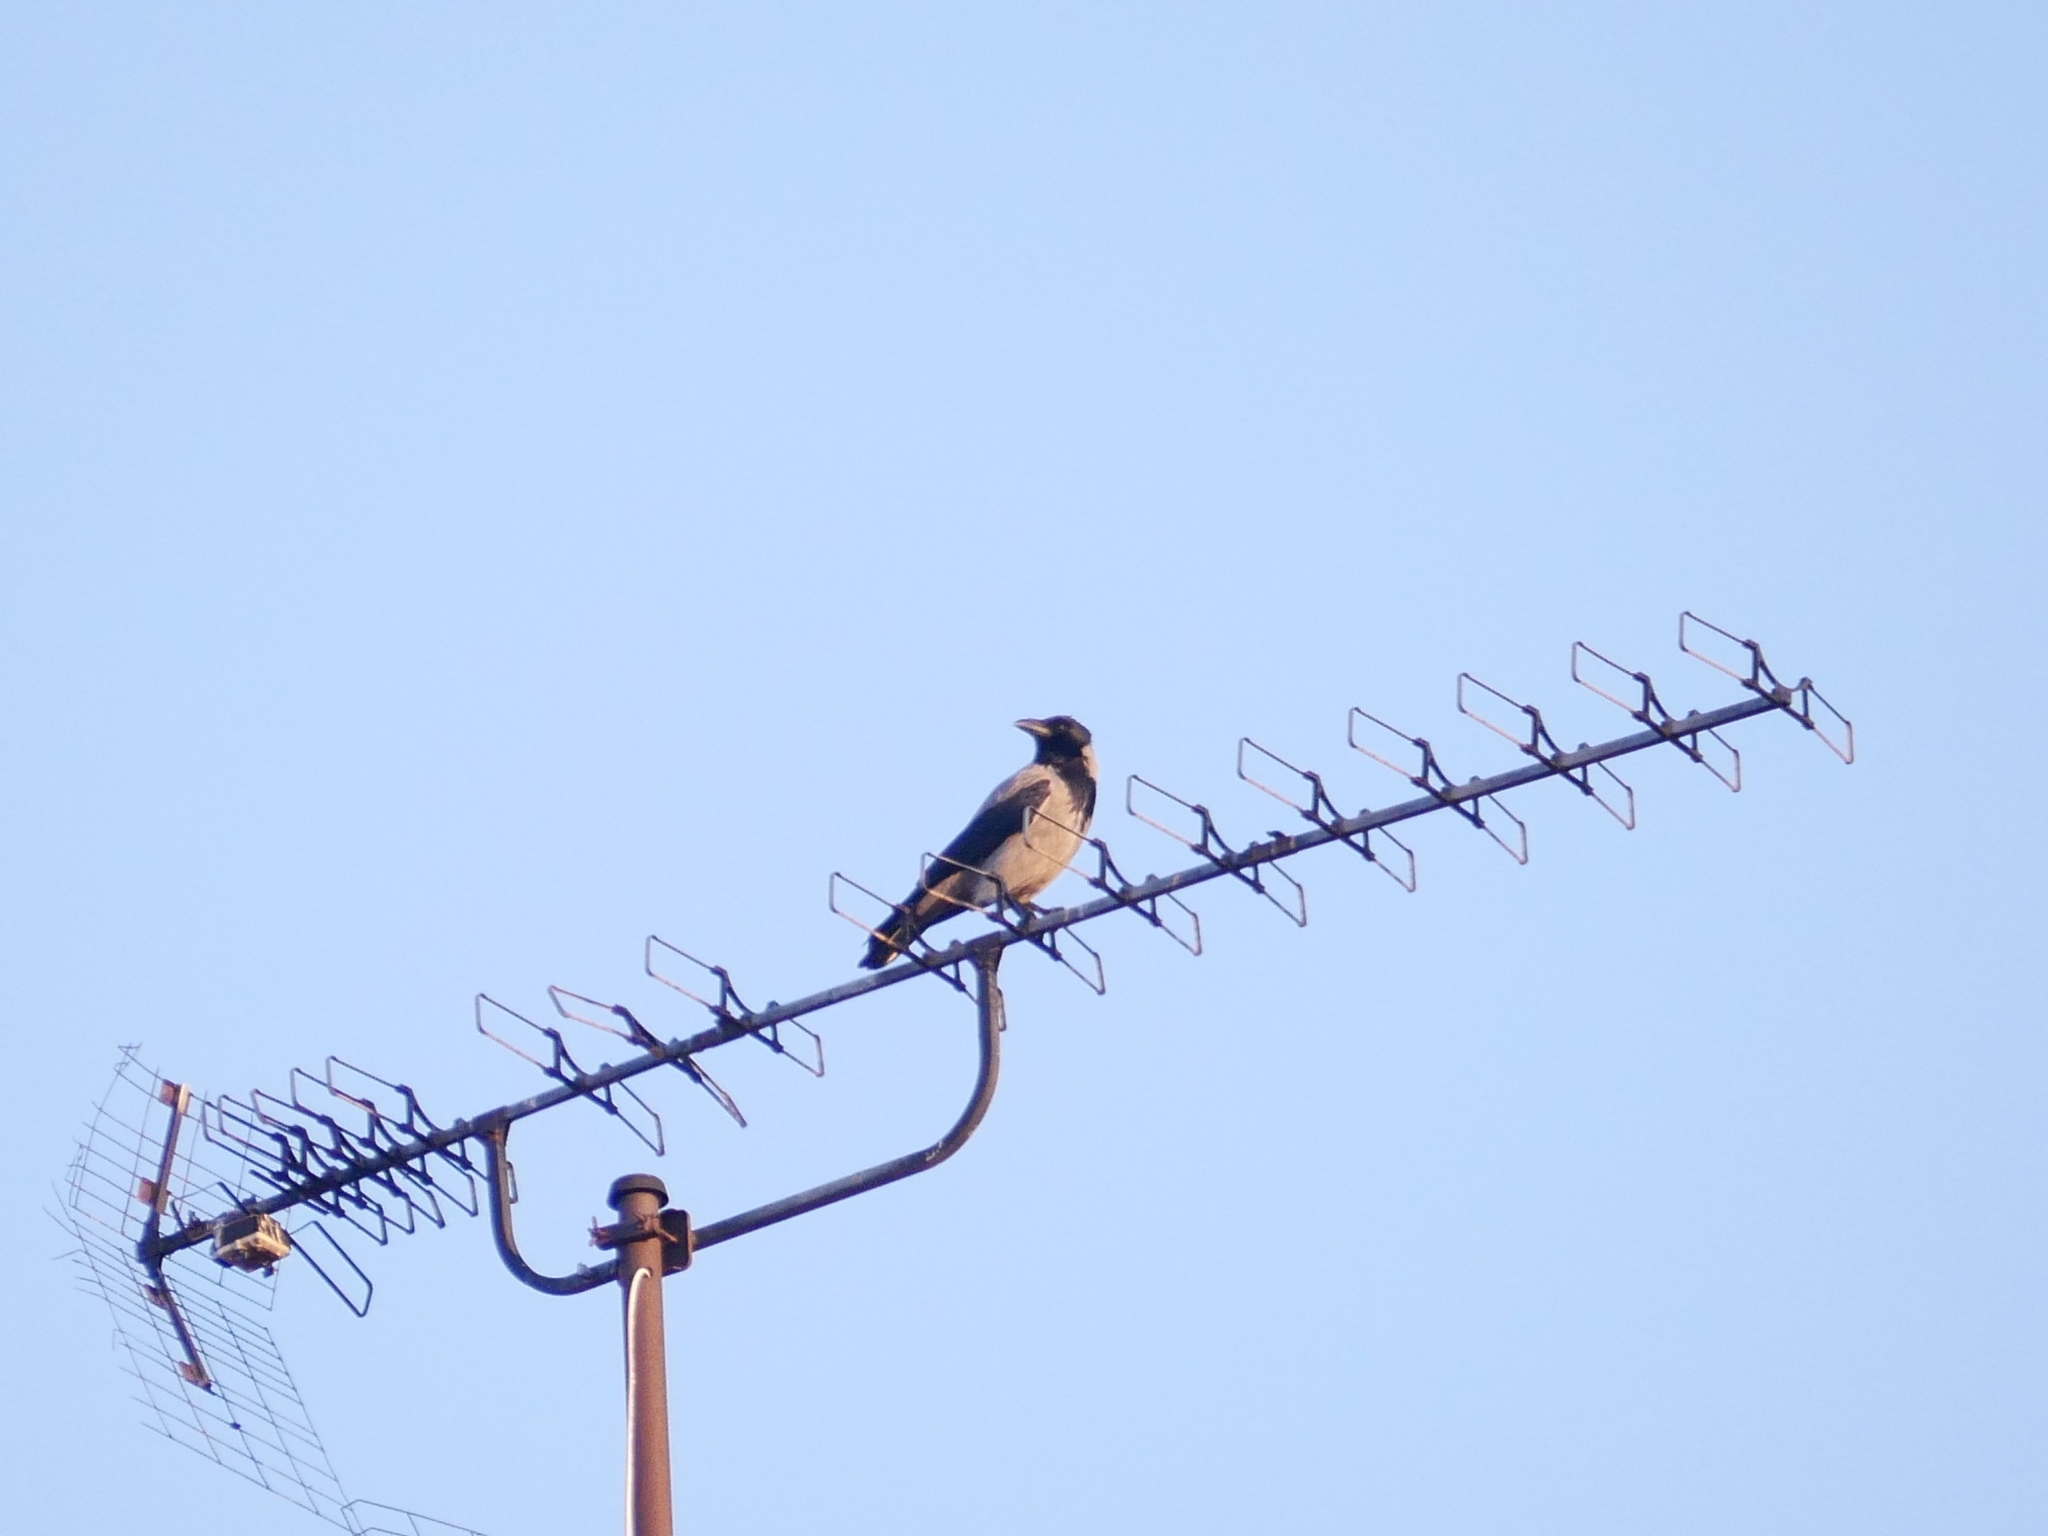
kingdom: Animalia
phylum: Chordata
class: Aves
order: Passeriformes
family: Corvidae
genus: Corvus
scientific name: Corvus cornix
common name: Hooded crow
